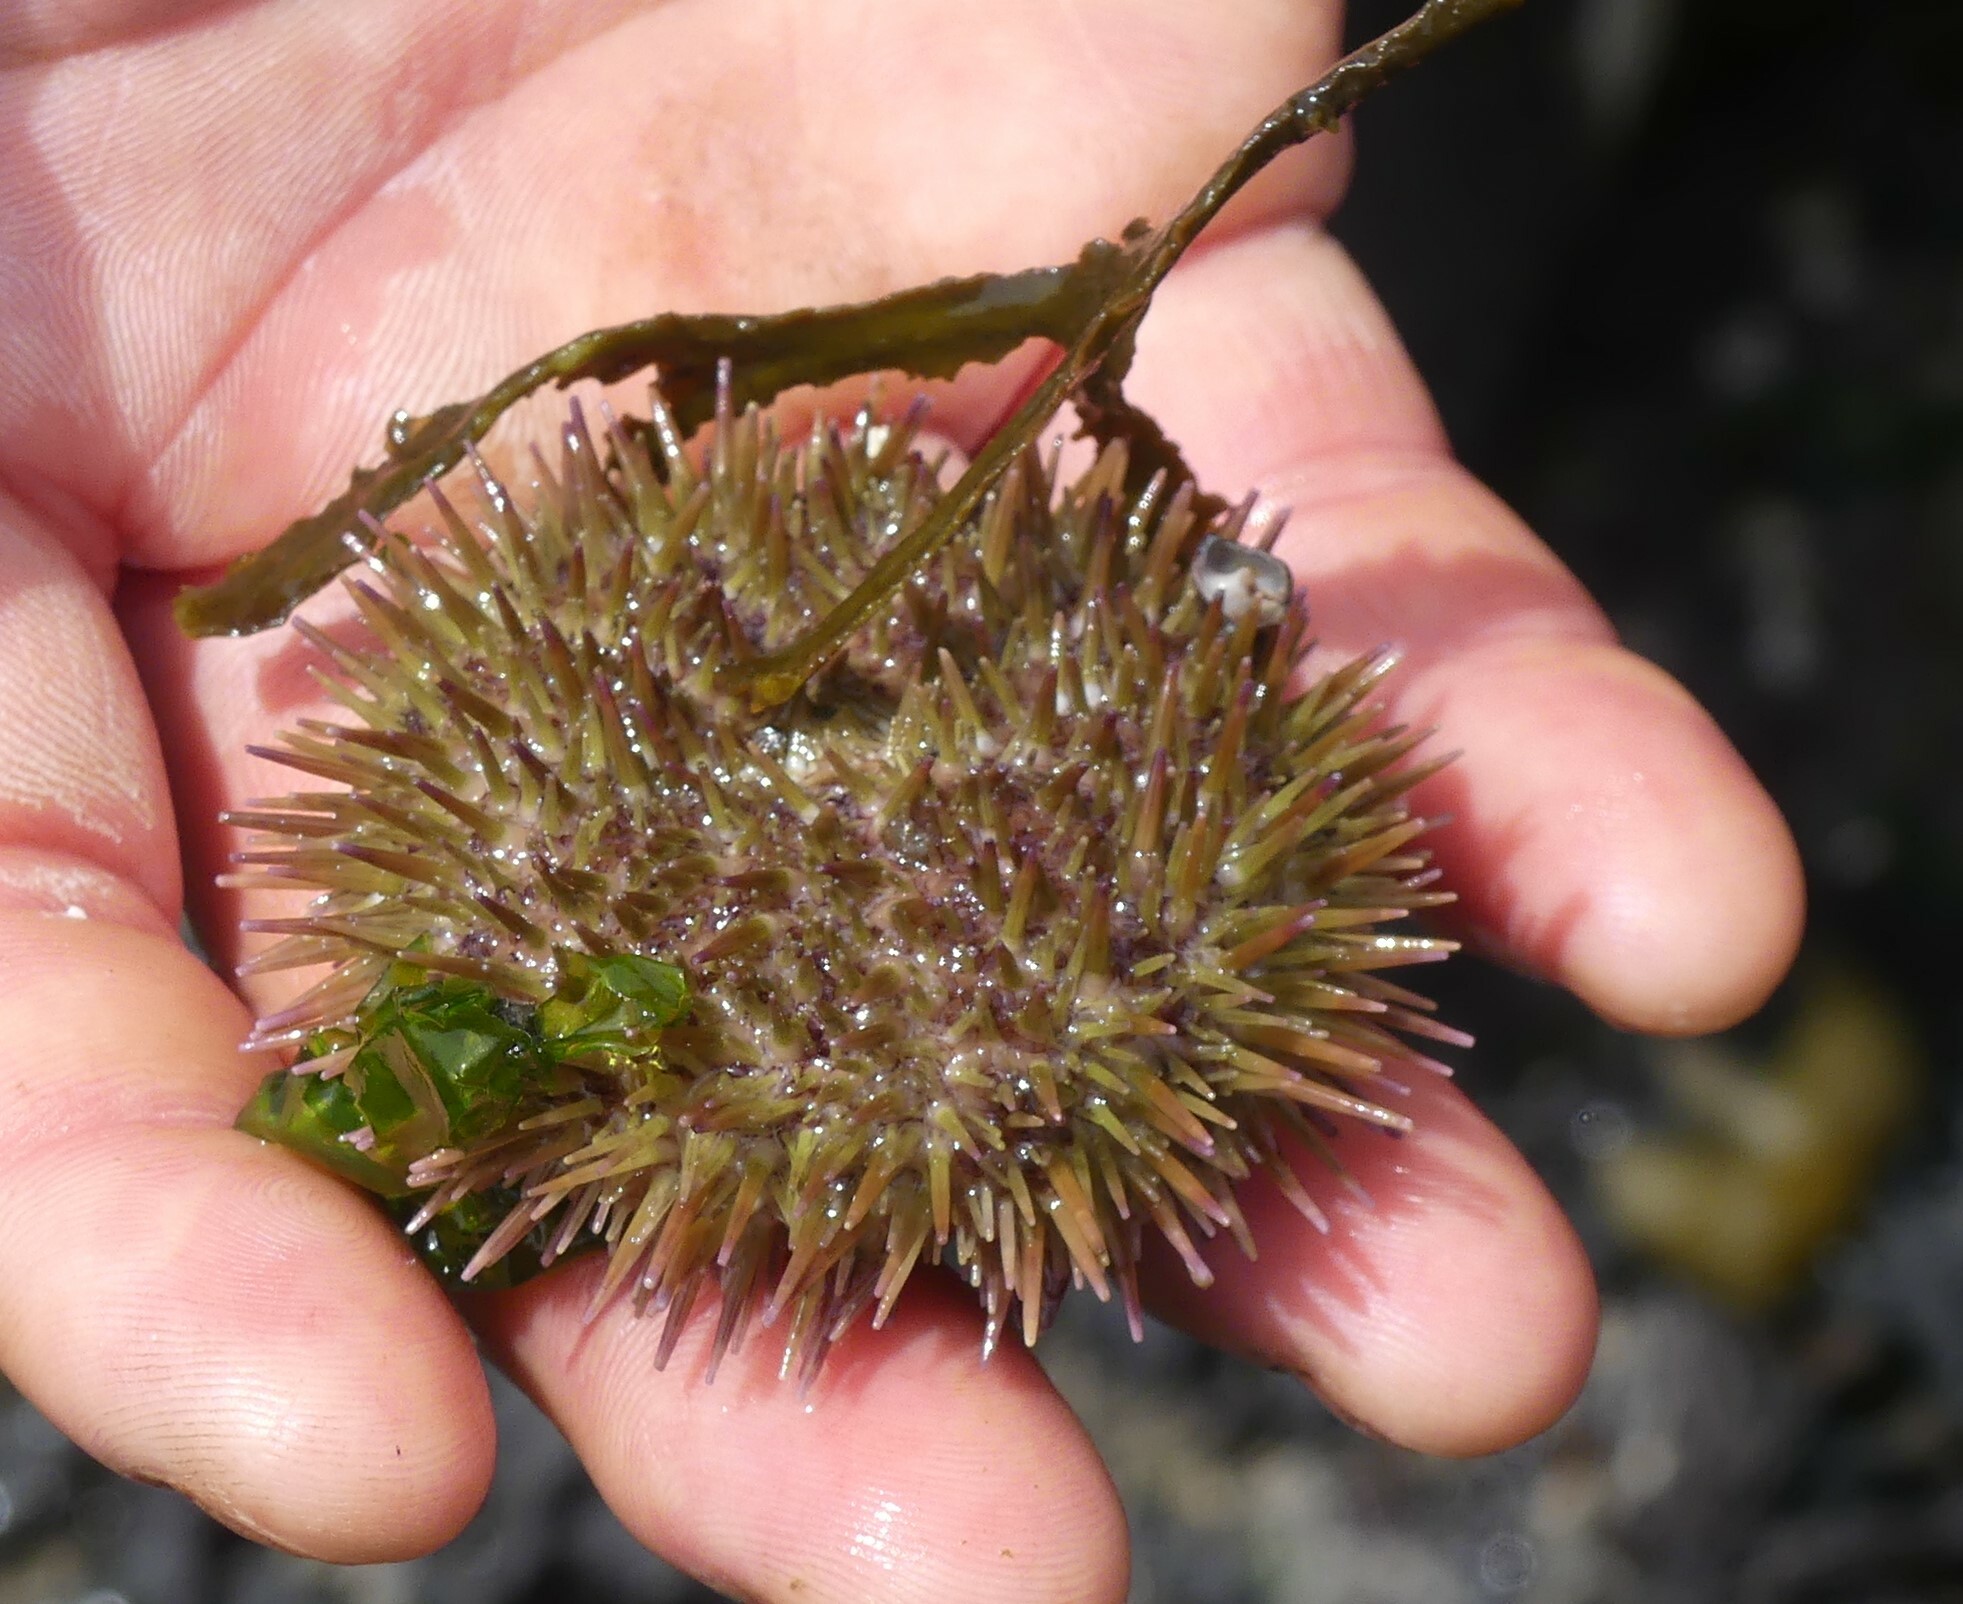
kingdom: Animalia
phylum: Echinodermata
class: Echinoidea
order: Camarodonta
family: Strongylocentrotidae
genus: Strongylocentrotus
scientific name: Strongylocentrotus droebachiensis
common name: Northern sea urchin
